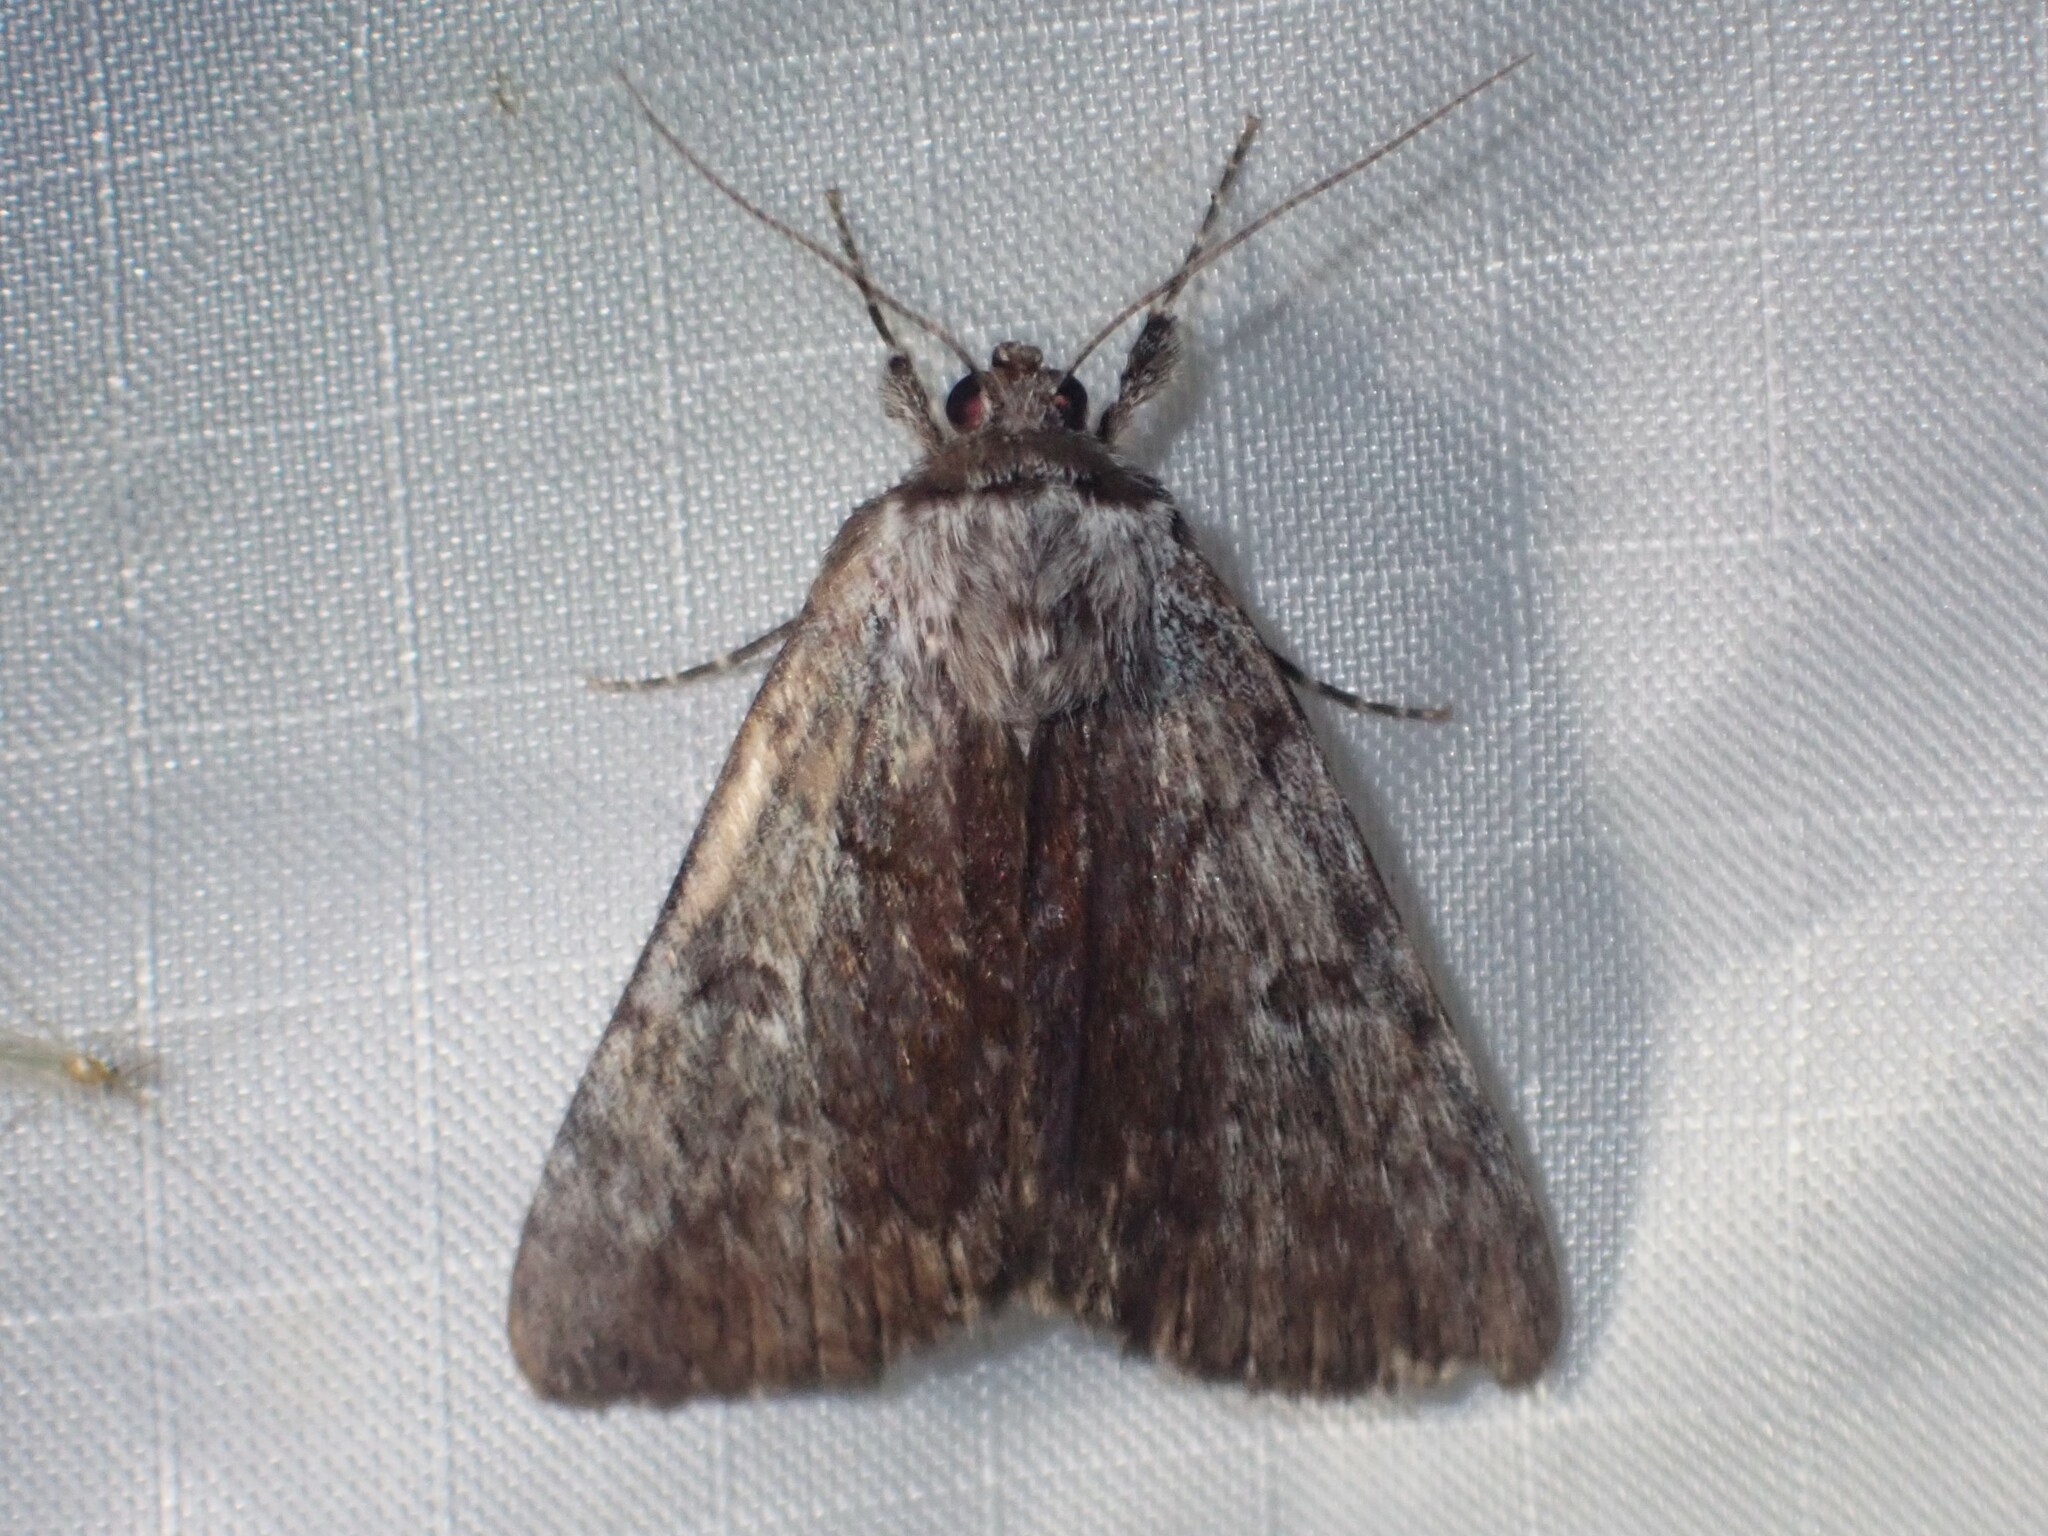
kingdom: Animalia
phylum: Arthropoda
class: Insecta
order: Lepidoptera
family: Erebidae
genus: Catocala
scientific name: Catocala sordida
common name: Sordid underwing
